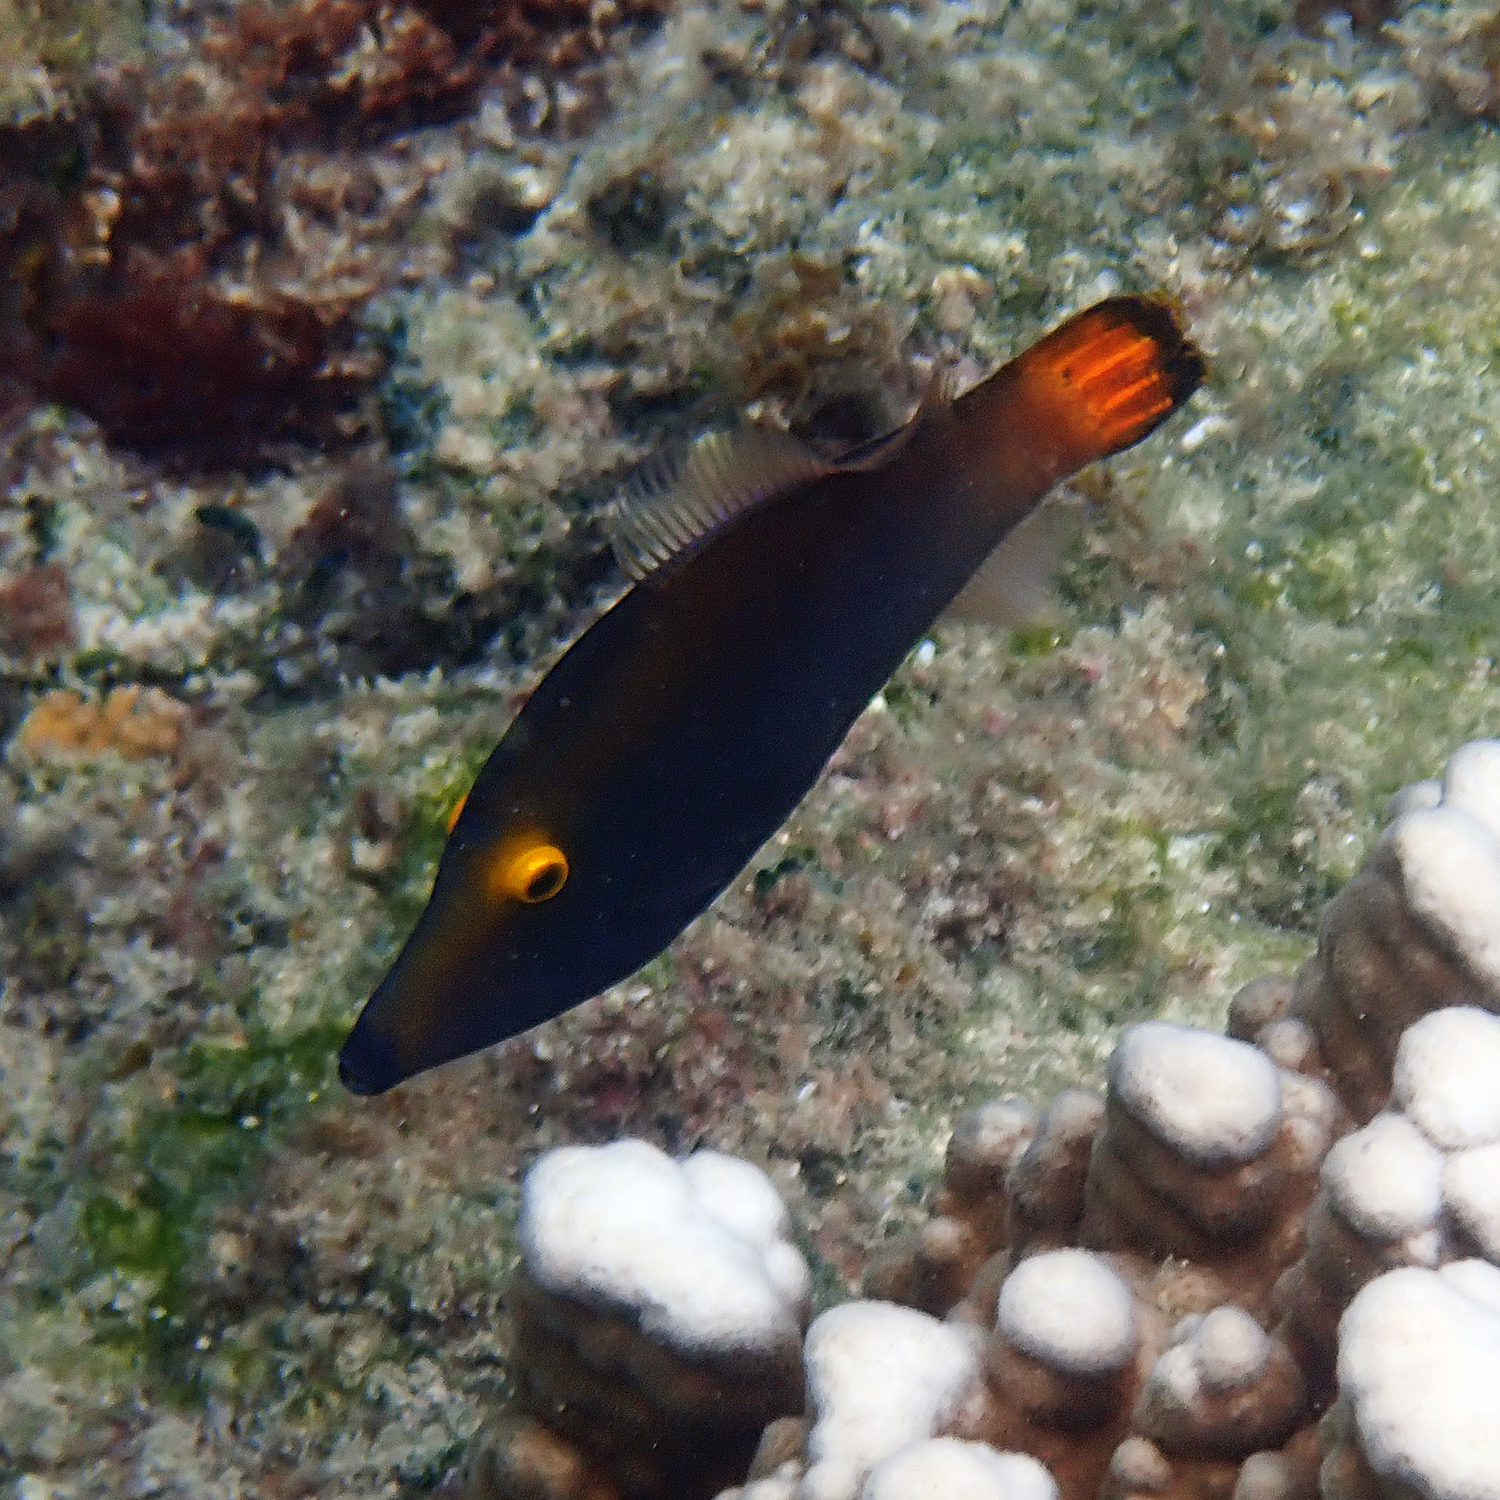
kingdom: Animalia
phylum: Chordata
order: Tetraodontiformes
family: Monacanthidae
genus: Pervagor
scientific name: Pervagor alternans
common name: Yelloweye filefish
